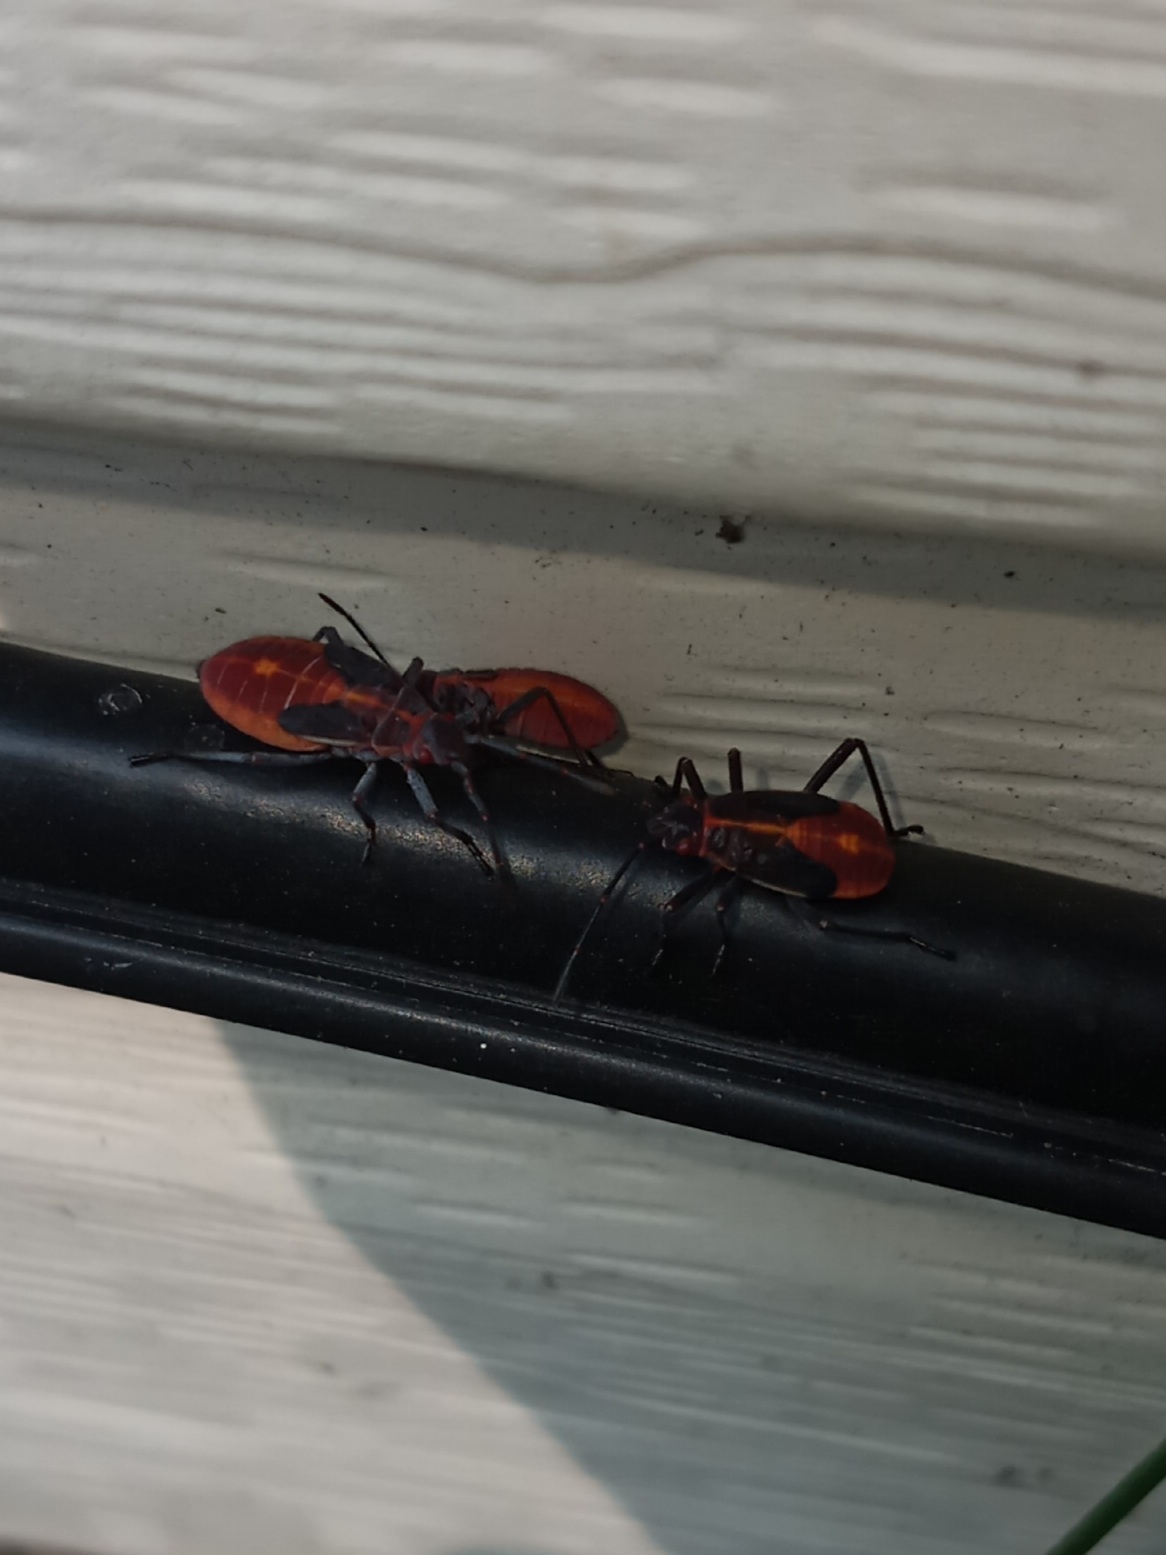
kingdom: Animalia
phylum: Arthropoda
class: Insecta
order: Hemiptera
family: Rhopalidae
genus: Boisea
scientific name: Boisea trivittata
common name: Boxelder bug
